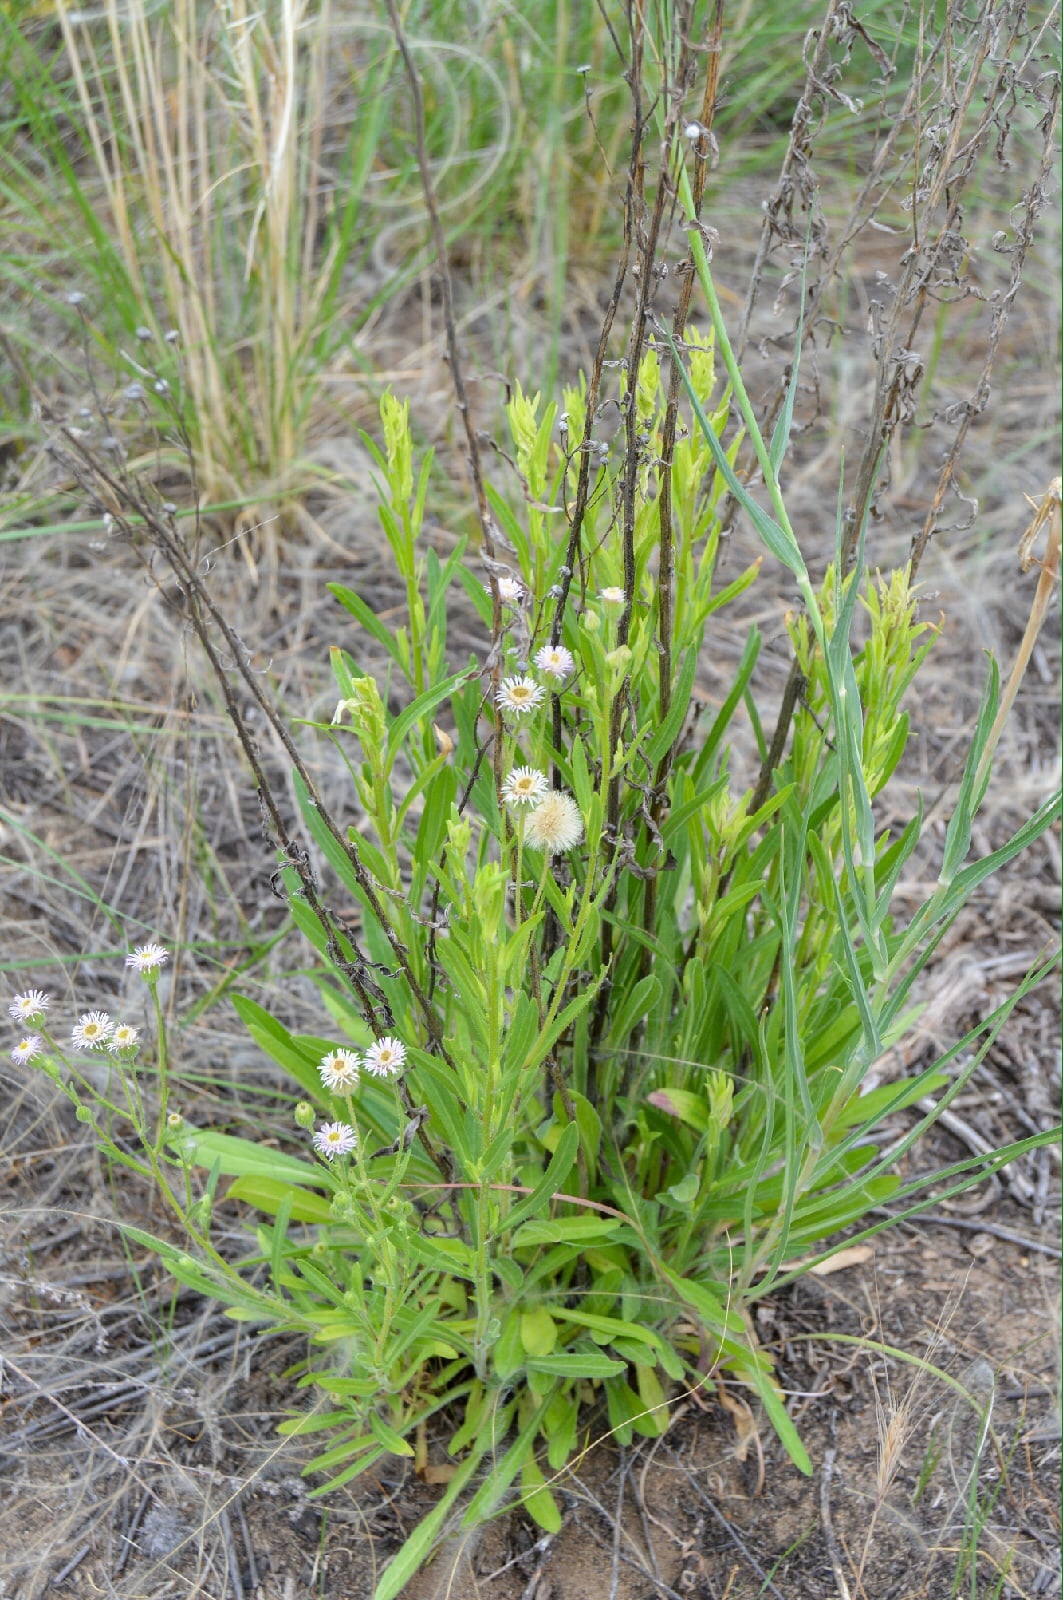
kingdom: Plantae
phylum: Tracheophyta
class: Magnoliopsida
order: Asterales
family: Asteraceae
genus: Erigeron
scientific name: Erigeron podolicus
